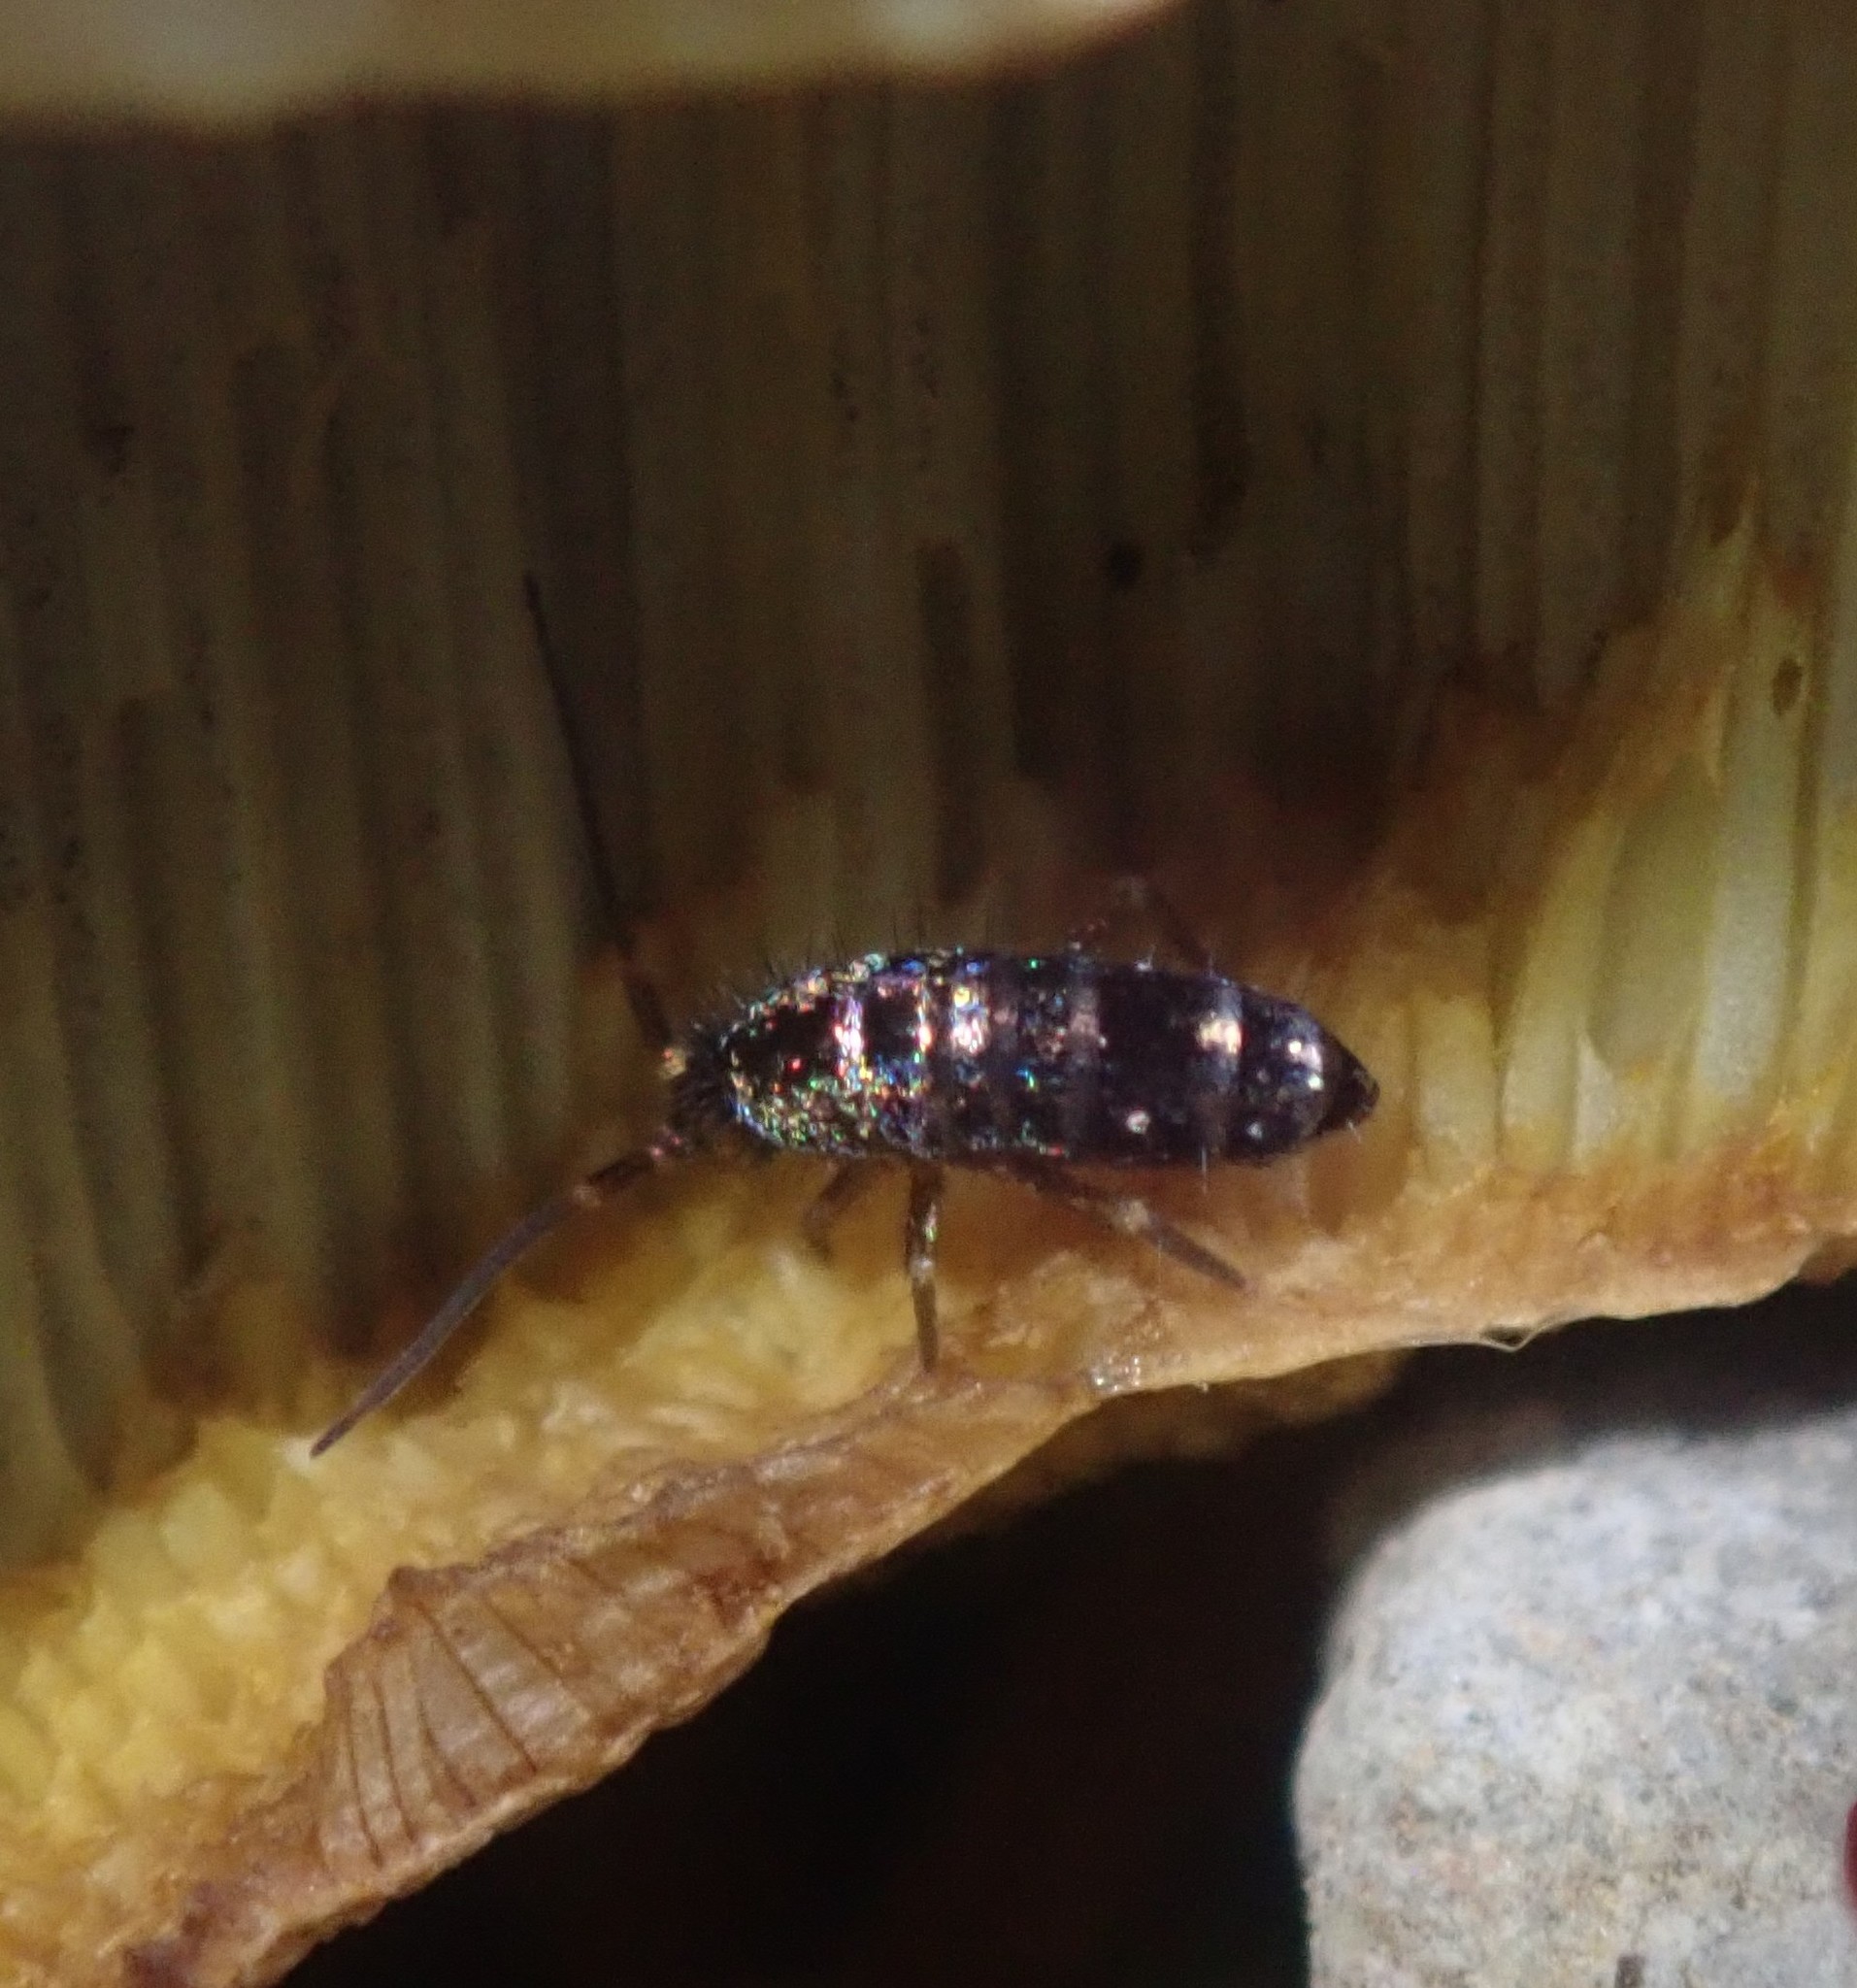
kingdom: Animalia
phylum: Arthropoda
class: Collembola
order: Entomobryomorpha
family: Tomoceridae
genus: Tomocerus
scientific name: Tomocerus vulgaris
